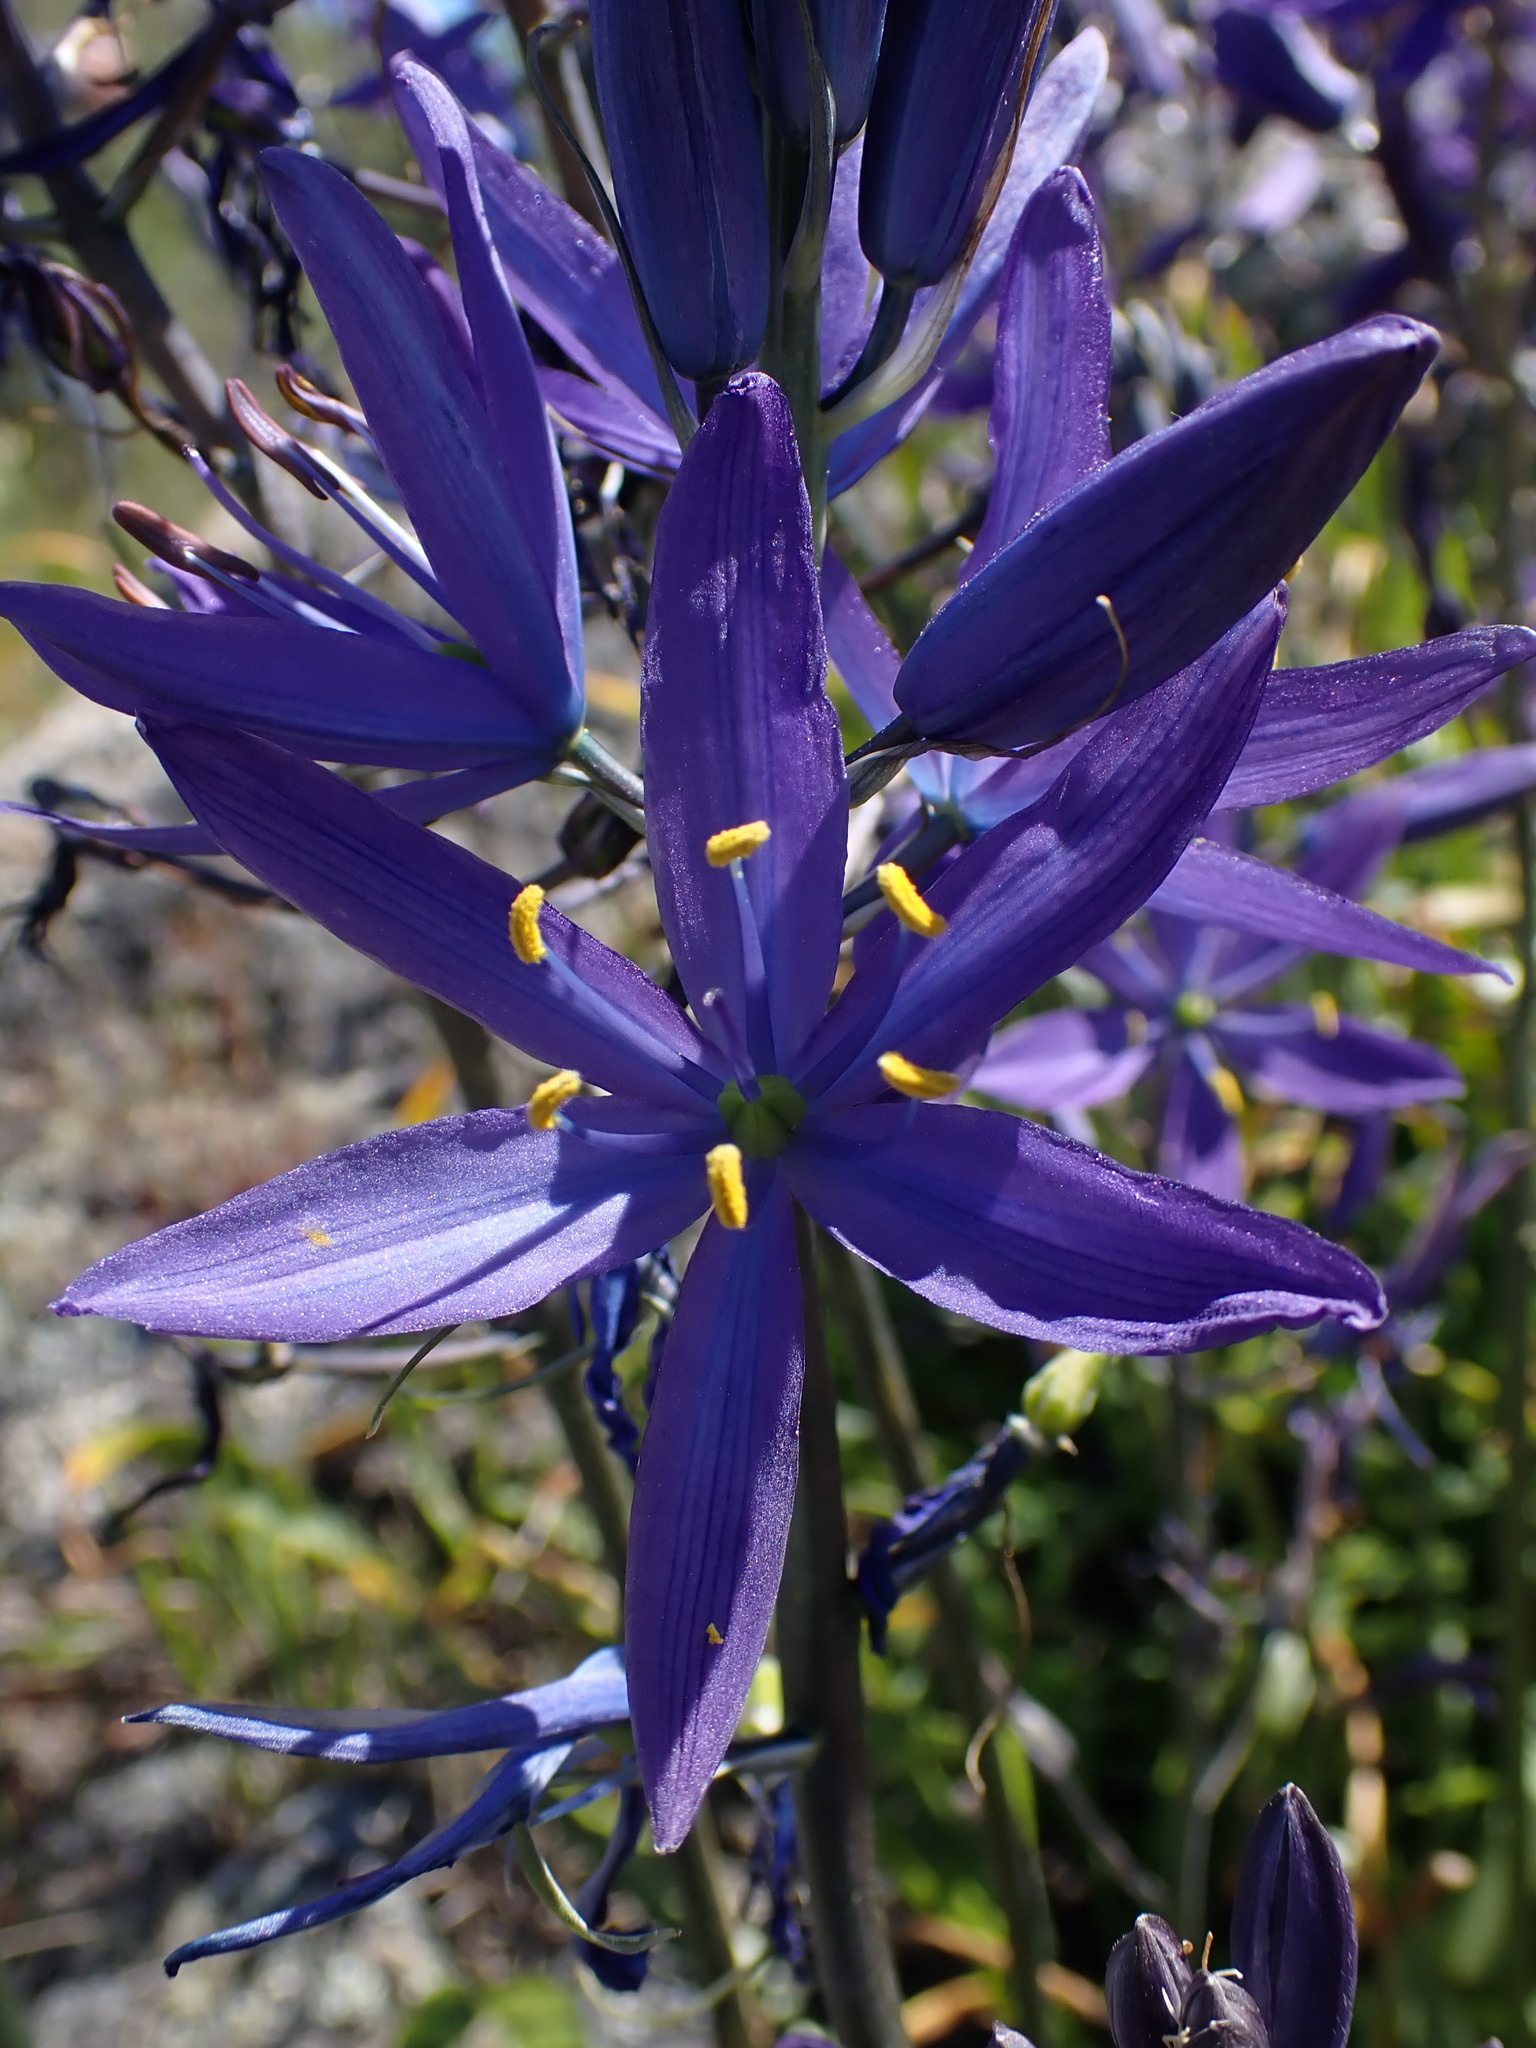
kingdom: Plantae
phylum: Tracheophyta
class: Liliopsida
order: Asparagales
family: Asparagaceae
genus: Camassia
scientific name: Camassia leichtlinii
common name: Leichtlin's camas
